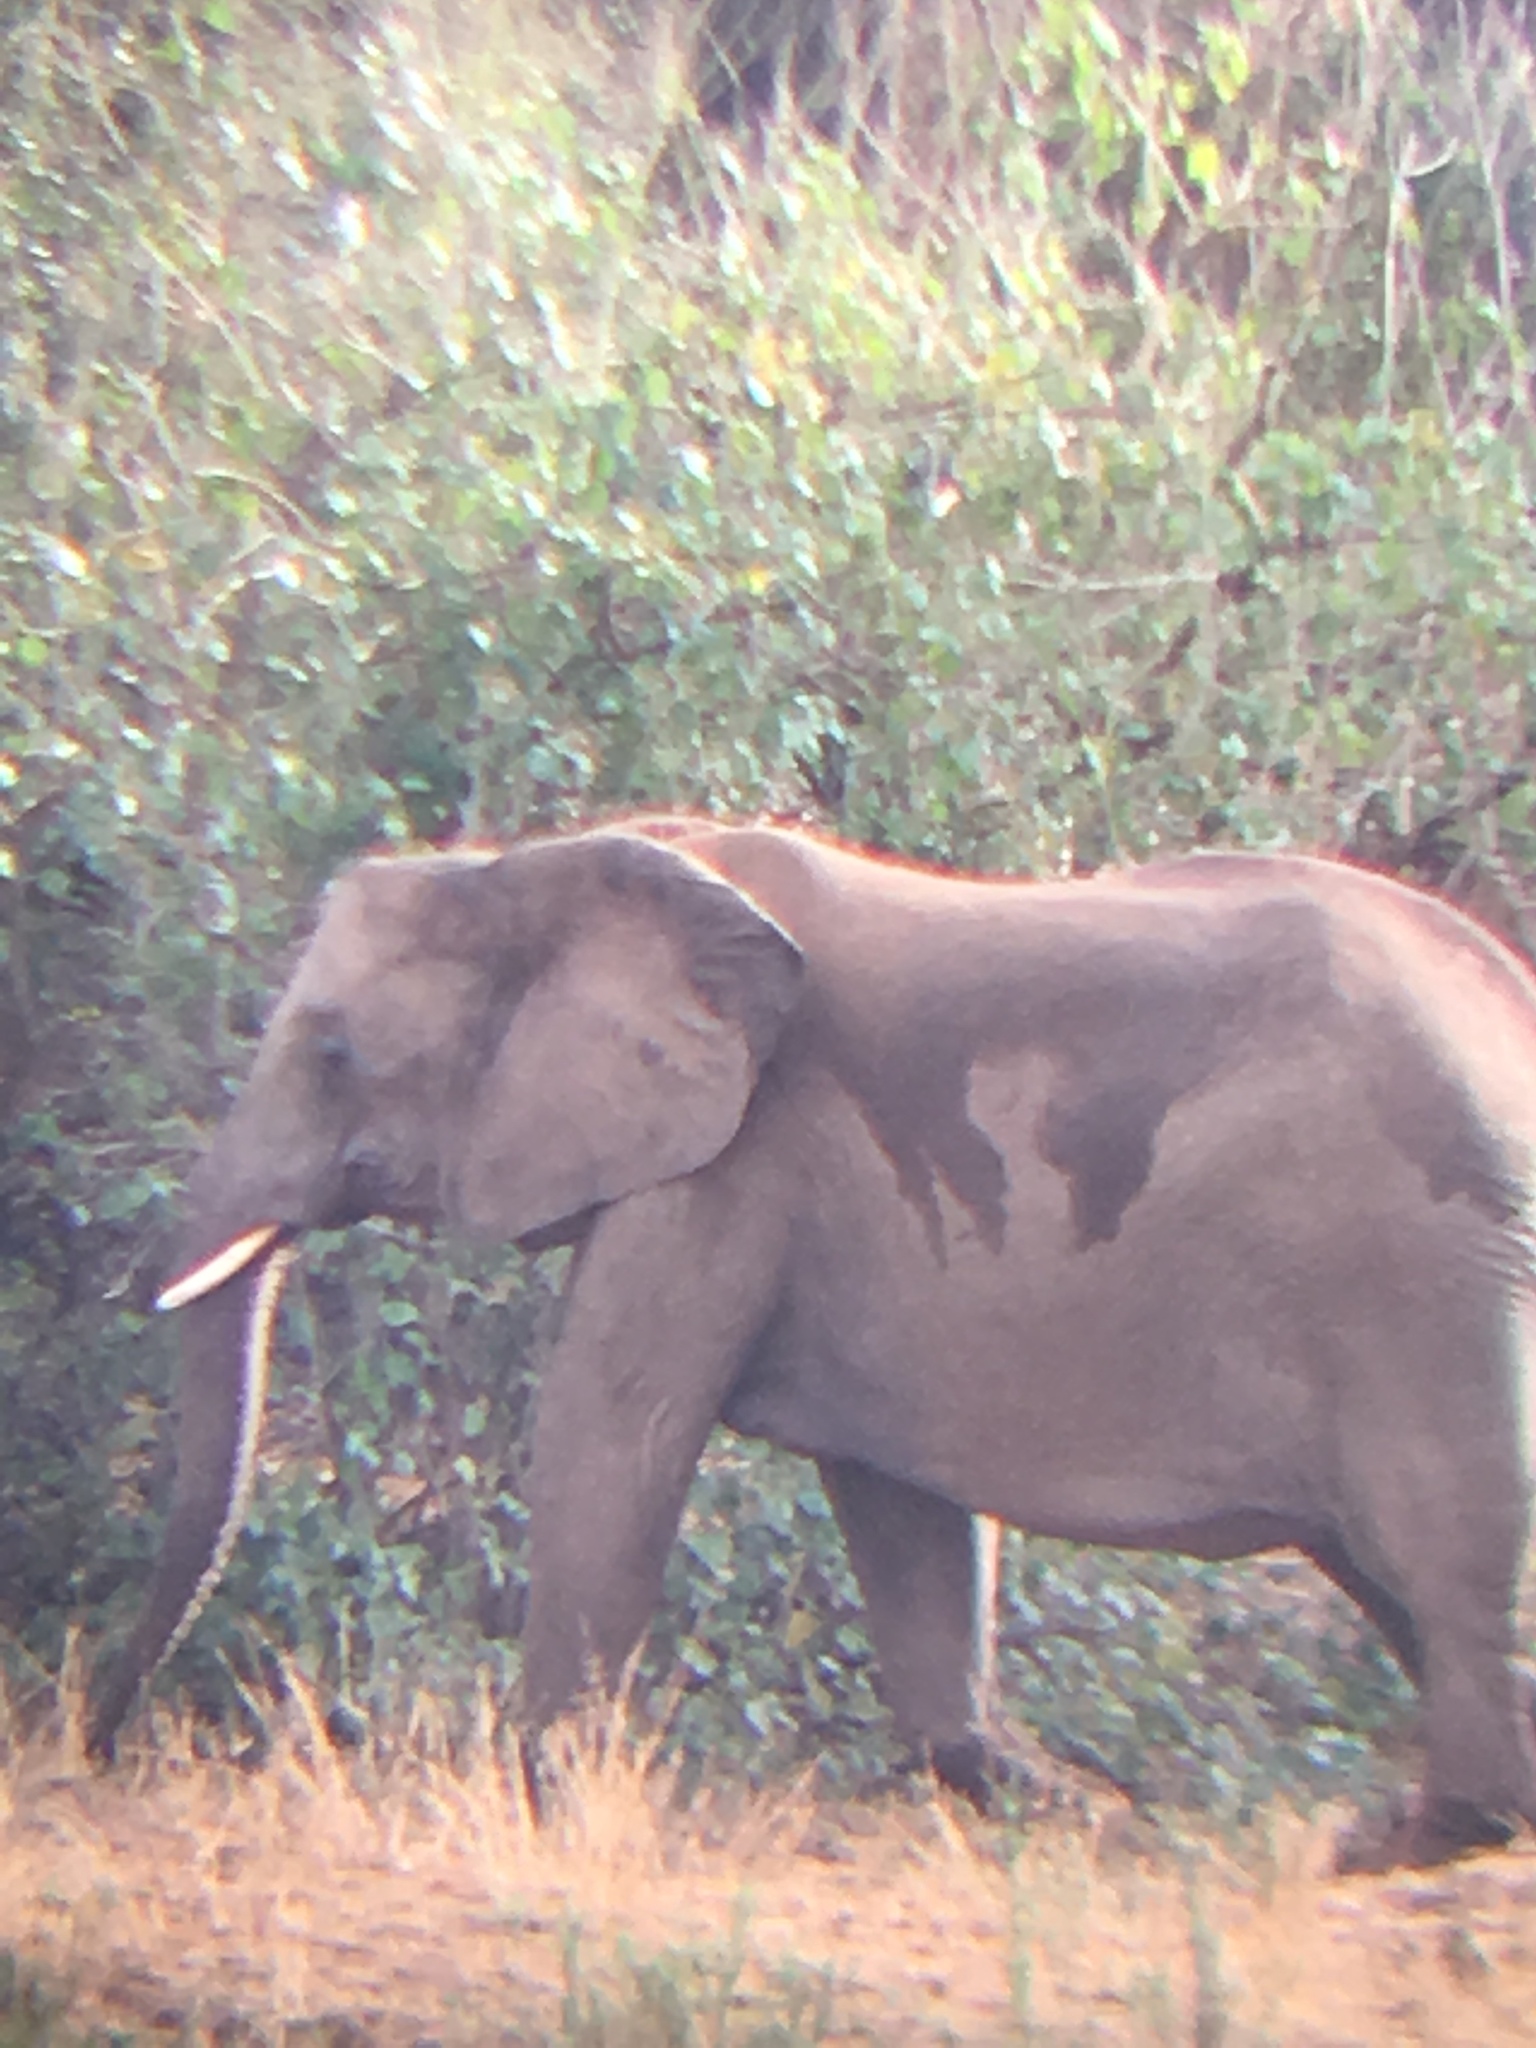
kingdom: Animalia
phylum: Chordata
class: Mammalia
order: Proboscidea
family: Elephantidae
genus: Loxodonta
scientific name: Loxodonta africana
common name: African elephant
